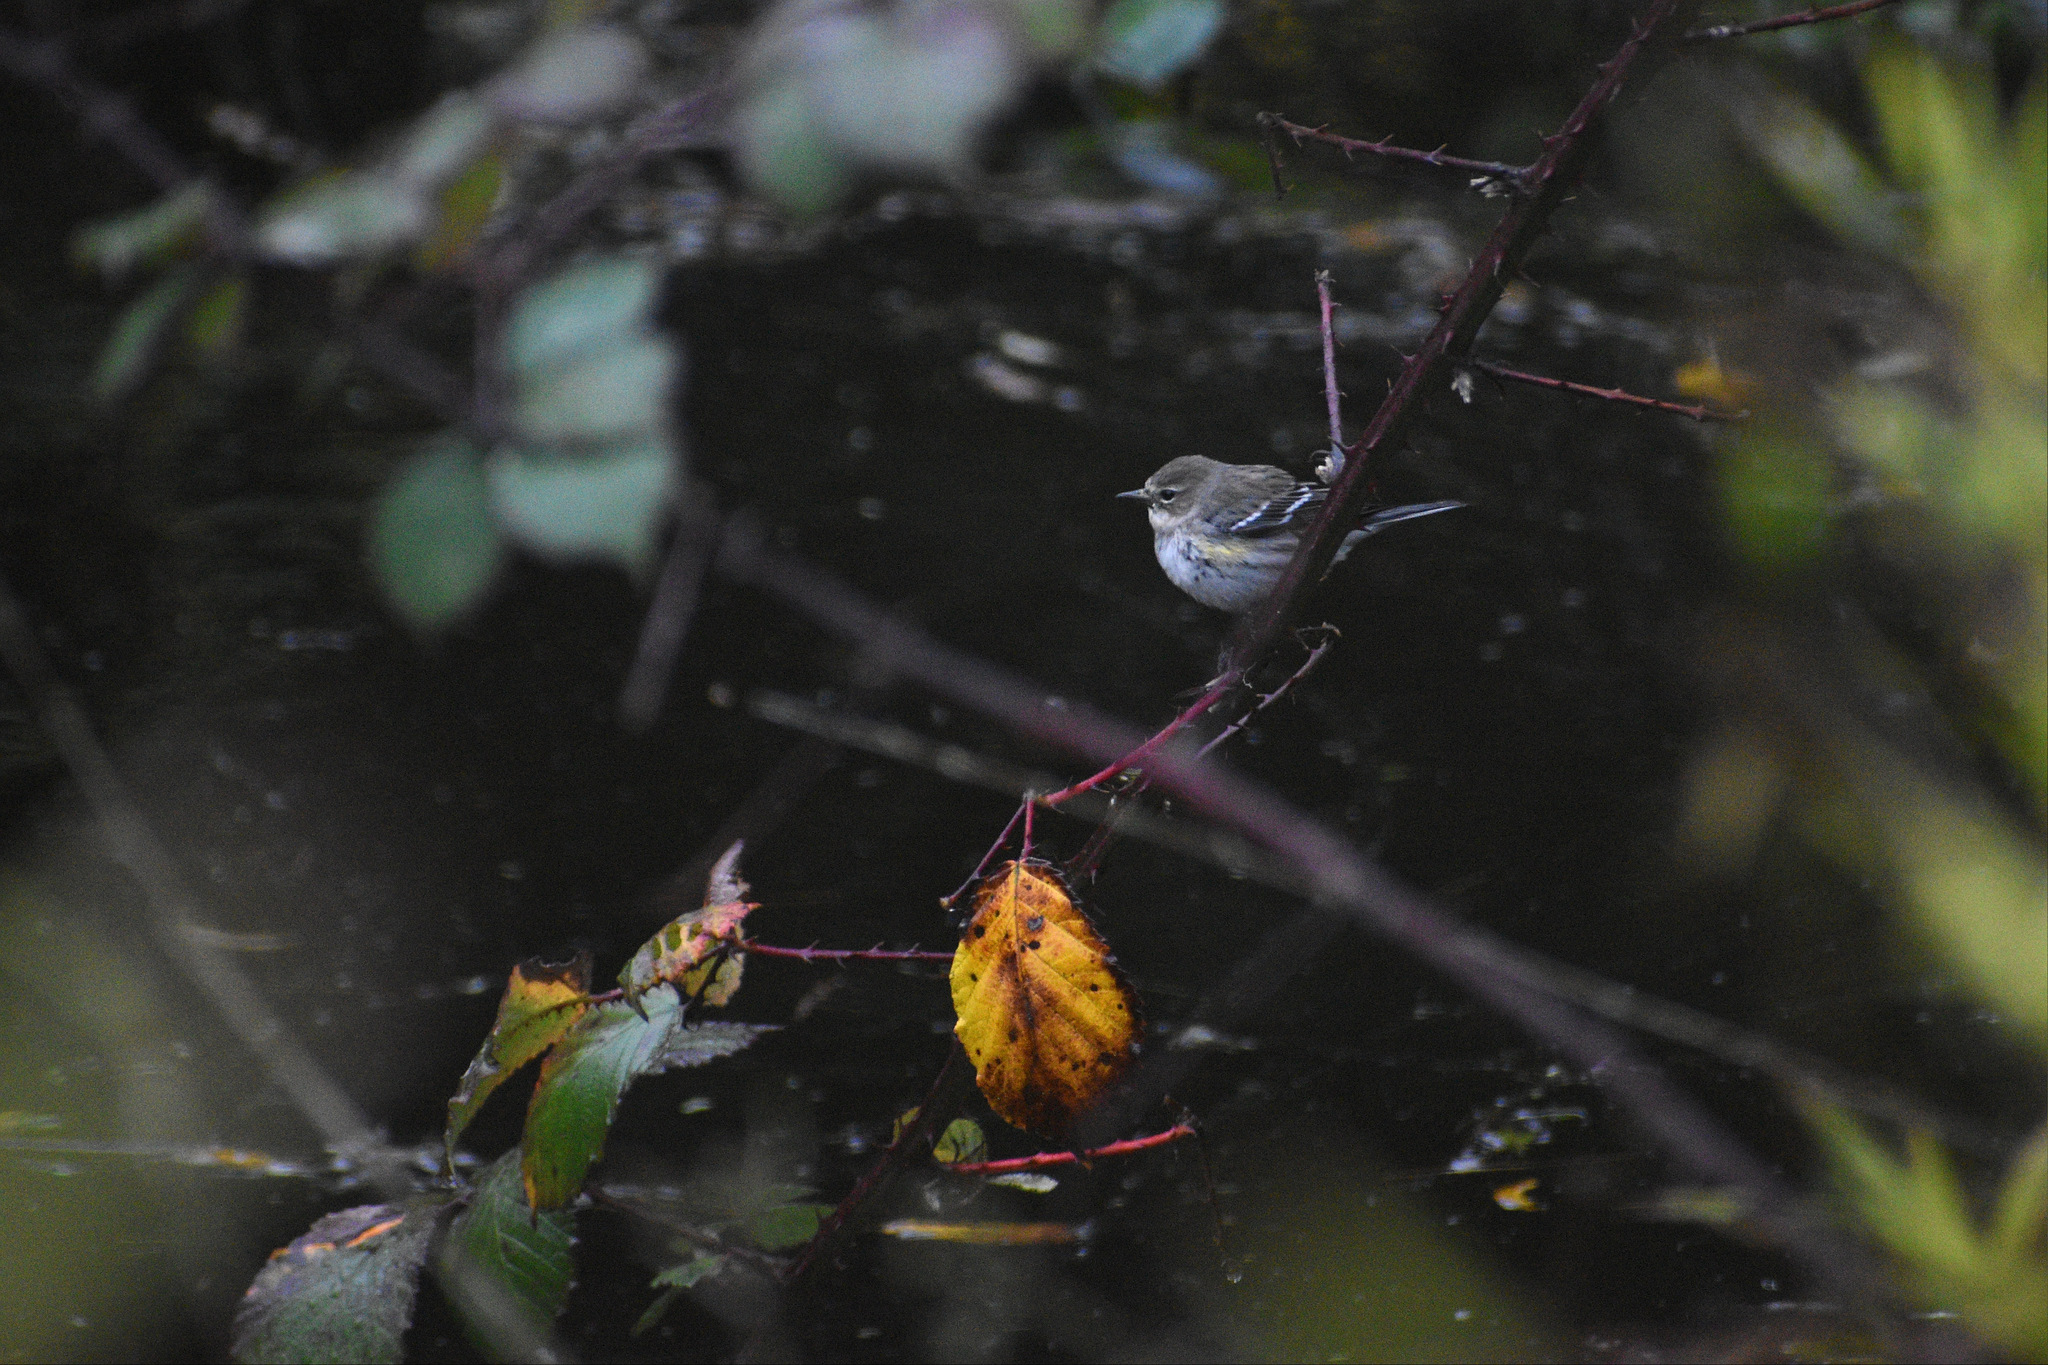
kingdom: Animalia
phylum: Chordata
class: Aves
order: Passeriformes
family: Parulidae
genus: Setophaga
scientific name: Setophaga coronata
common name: Myrtle warbler
